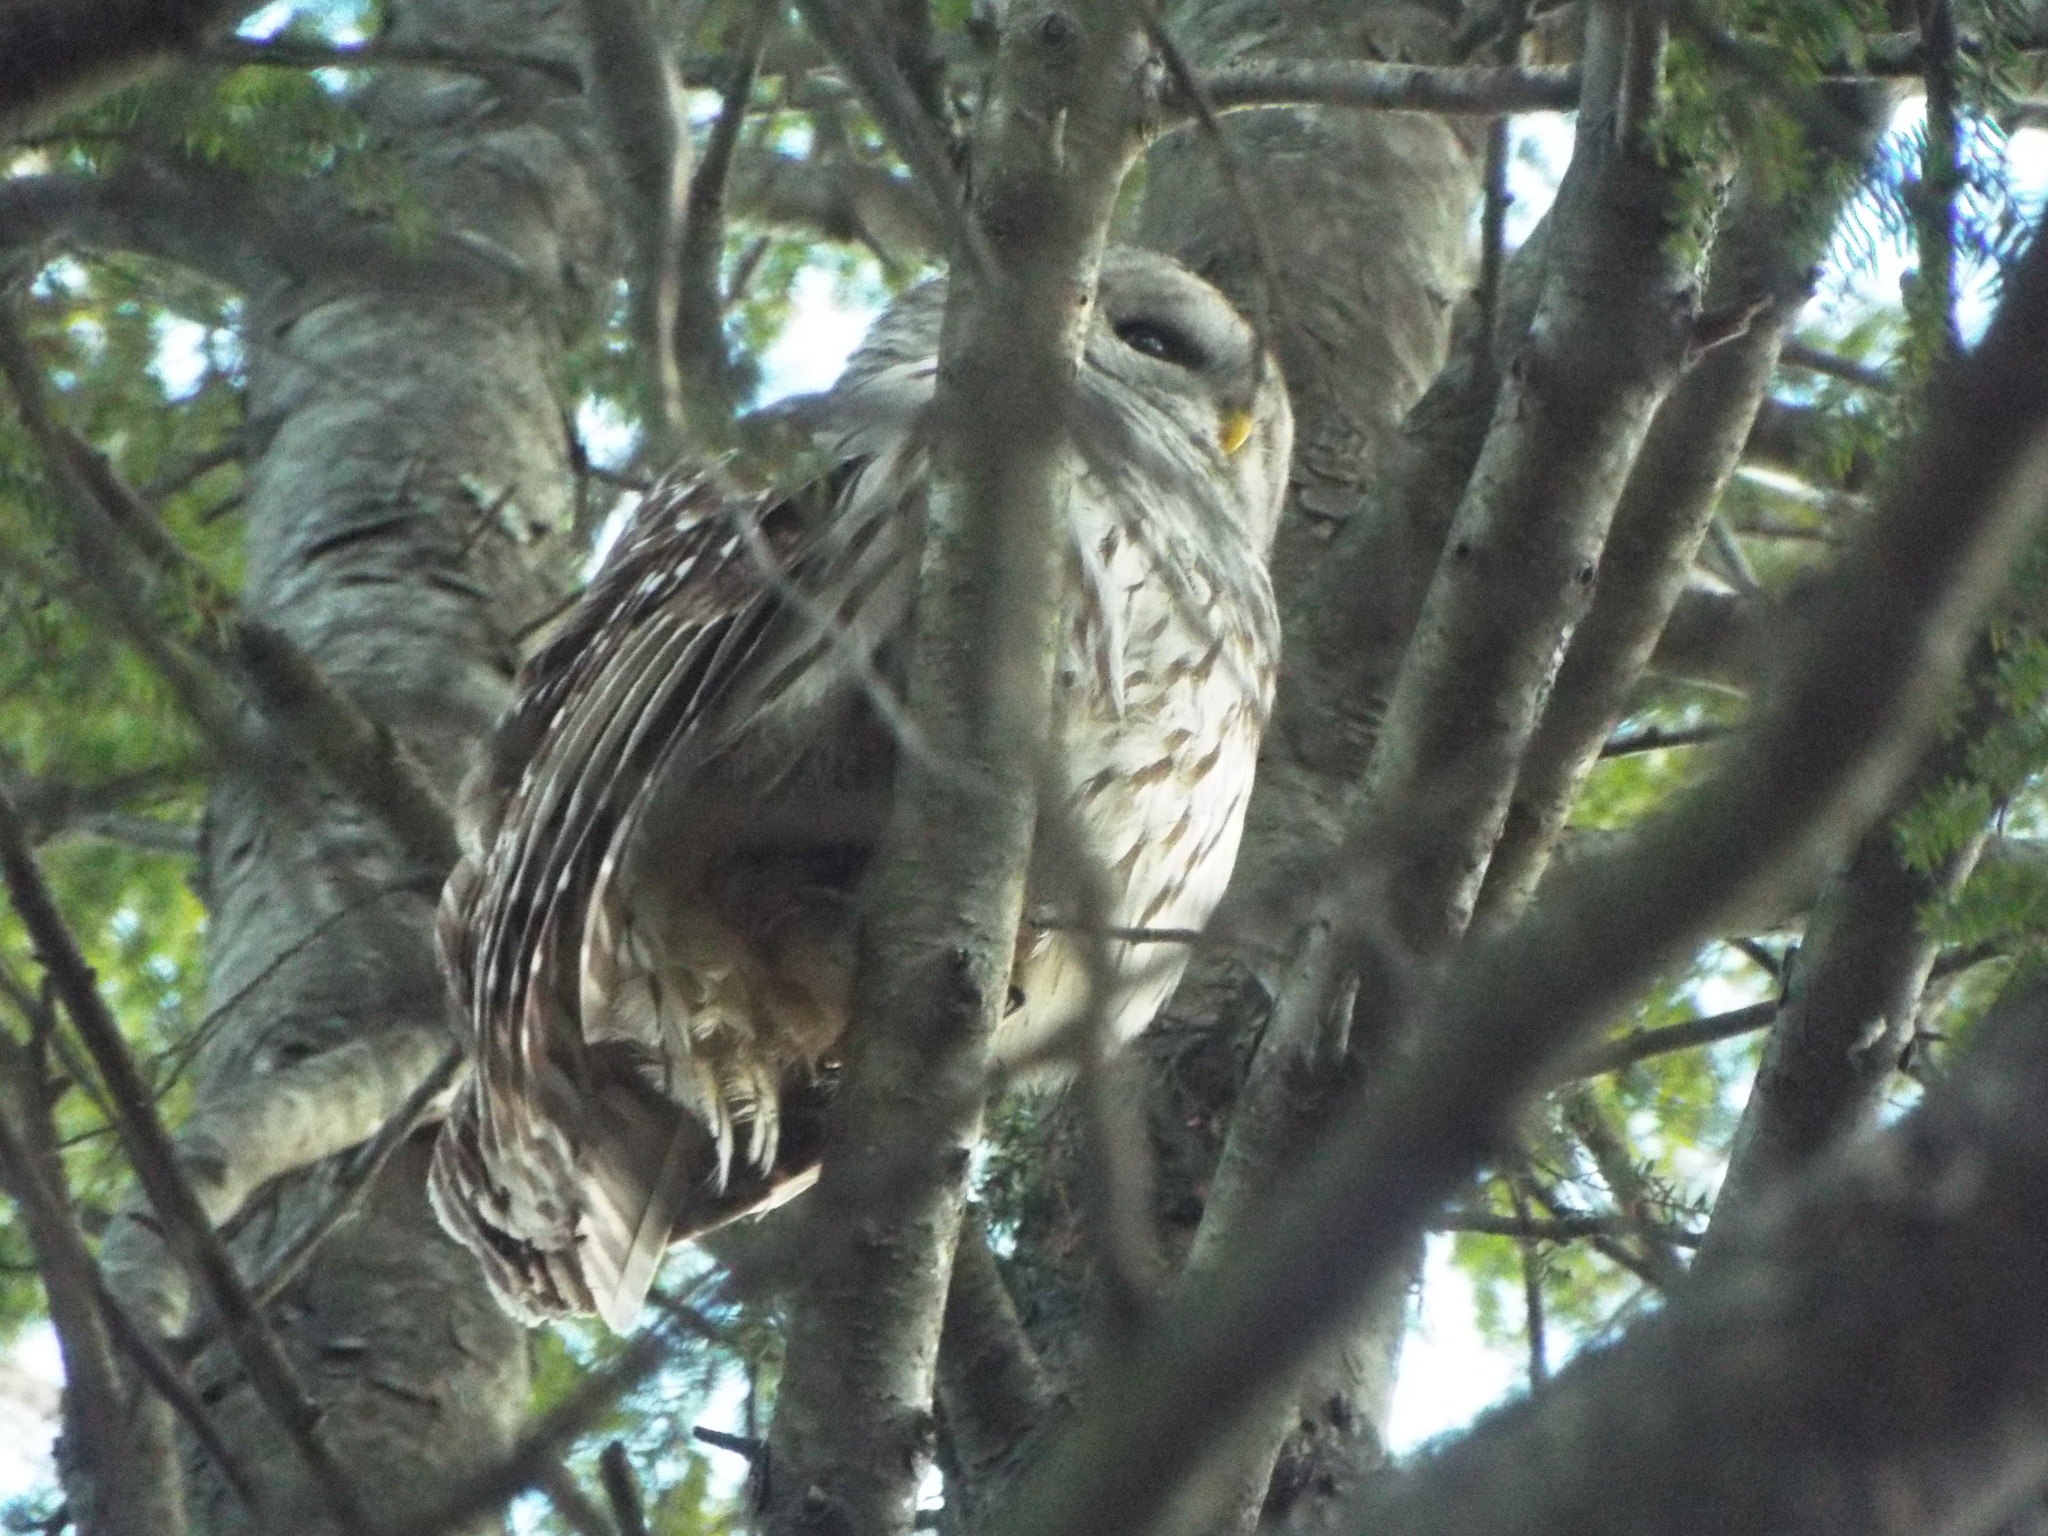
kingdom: Animalia
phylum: Chordata
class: Aves
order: Strigiformes
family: Strigidae
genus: Strix
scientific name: Strix varia
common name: Barred owl
